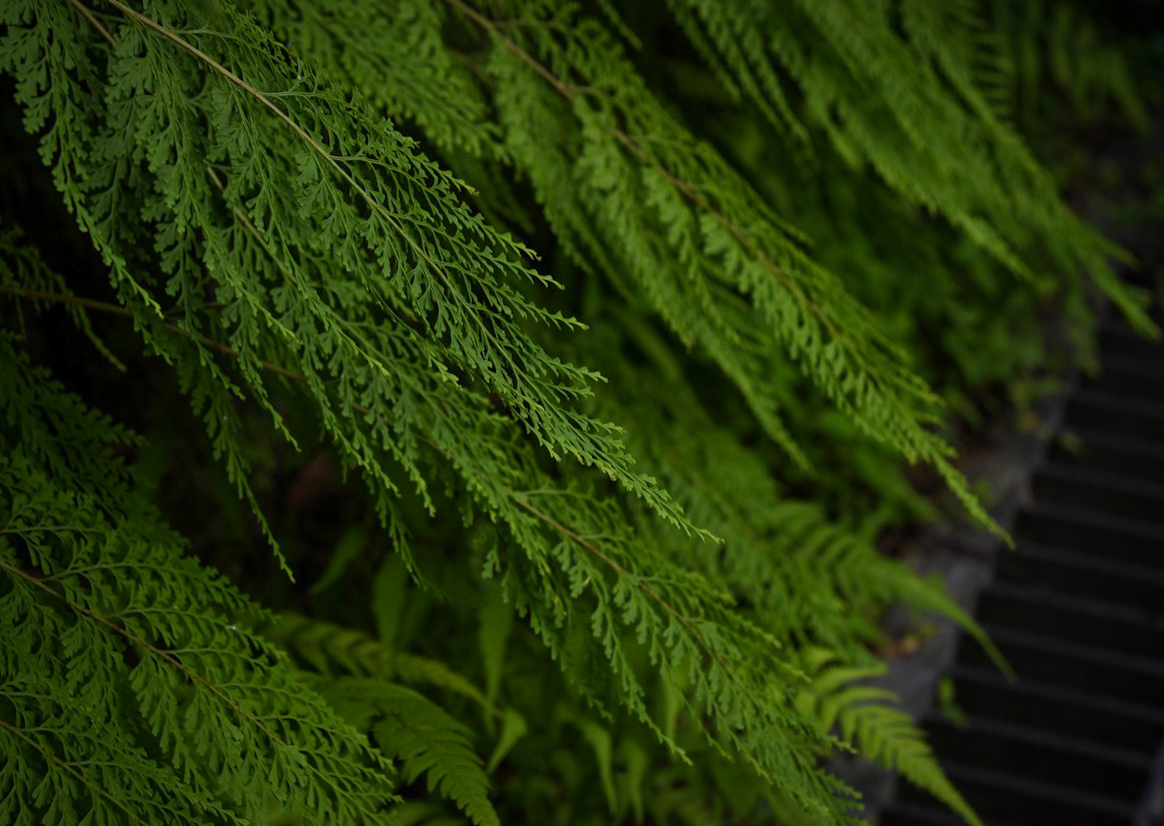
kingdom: Plantae
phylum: Tracheophyta
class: Polypodiopsida
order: Polypodiales
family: Lindsaeaceae
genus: Odontosoria
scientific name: Odontosoria chinensis
